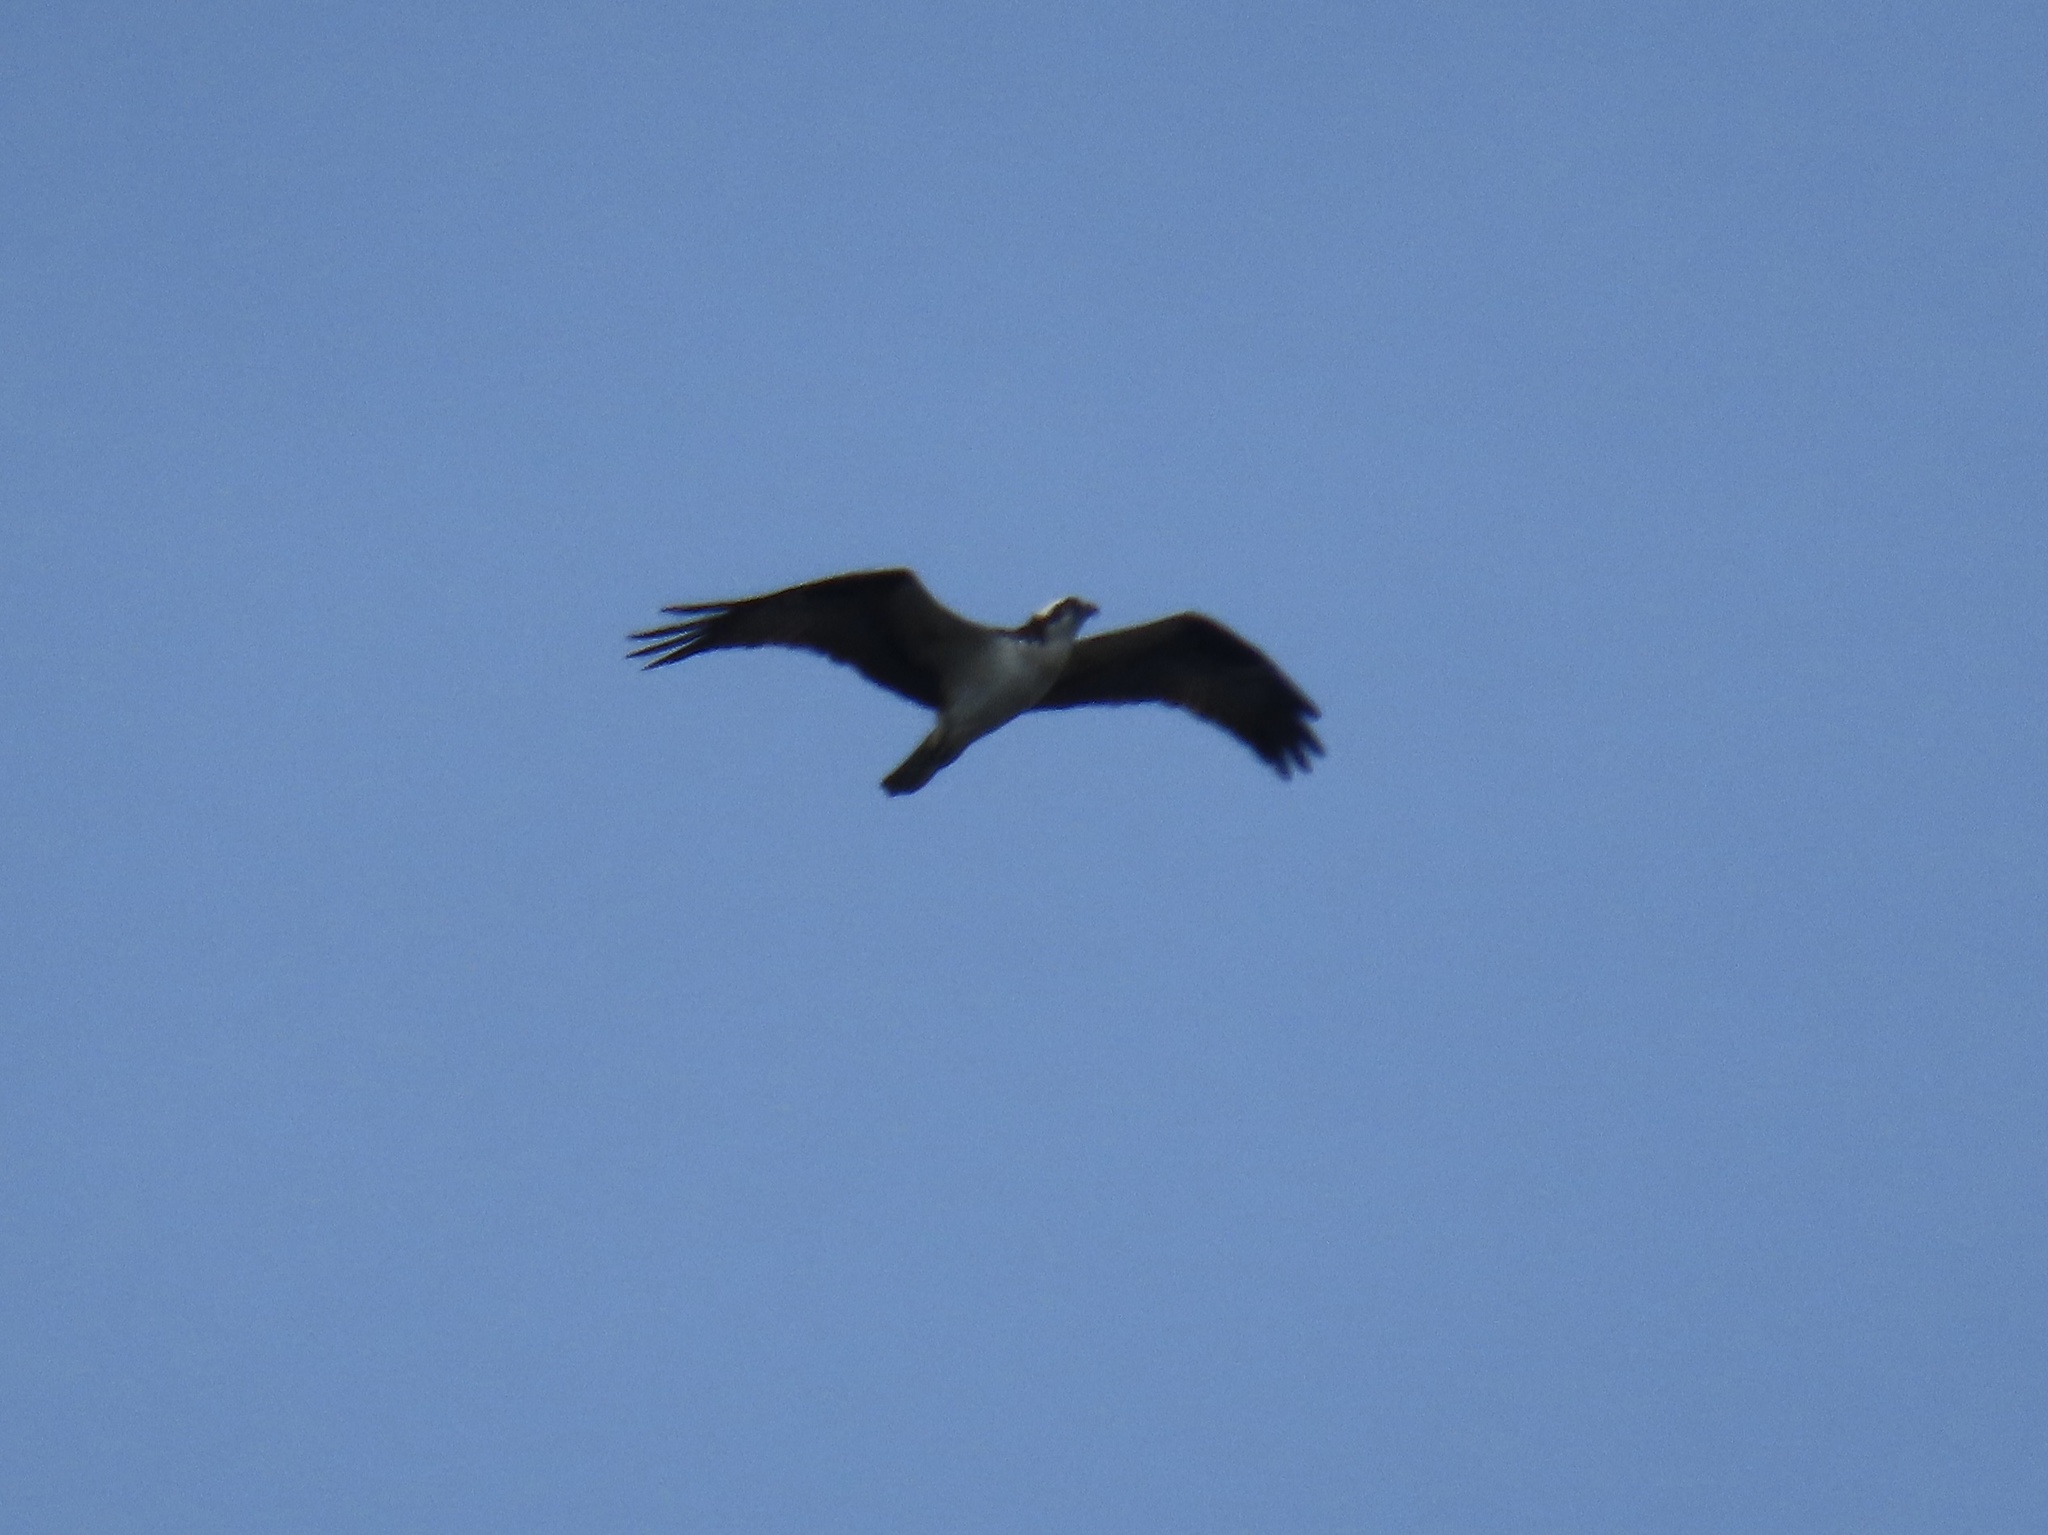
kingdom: Animalia
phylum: Chordata
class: Aves
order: Accipitriformes
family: Pandionidae
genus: Pandion
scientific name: Pandion haliaetus
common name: Osprey
